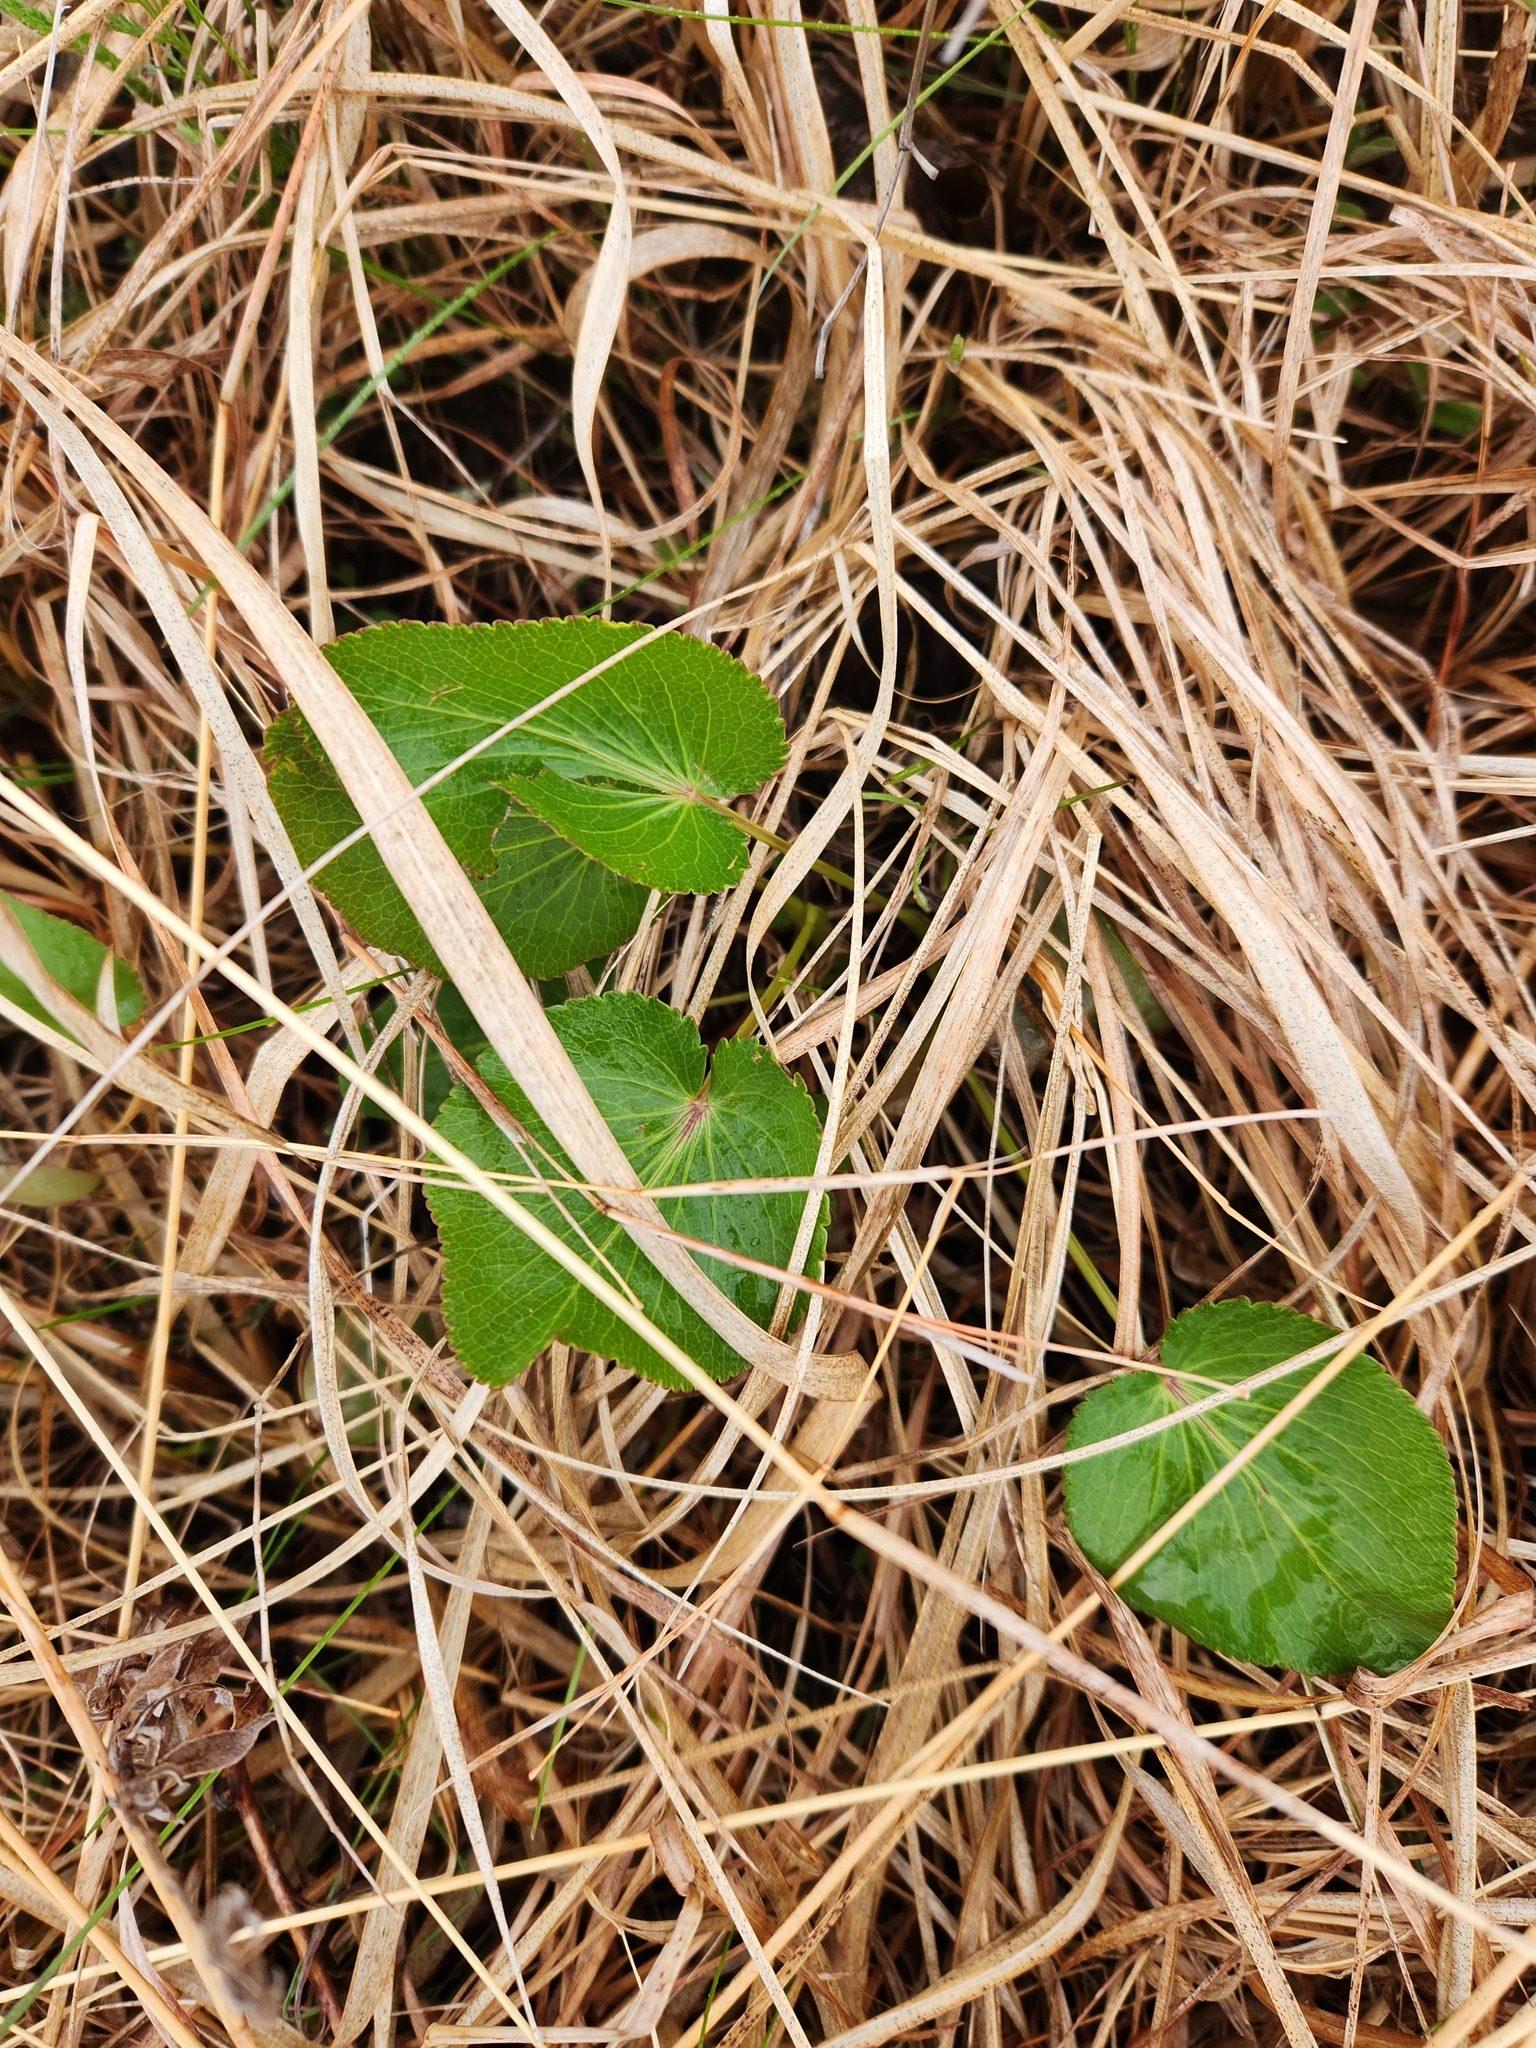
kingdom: Plantae
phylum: Tracheophyta
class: Magnoliopsida
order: Apiales
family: Apiaceae
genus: Zizia
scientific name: Zizia aptera
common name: Heart-leaved alexanders
